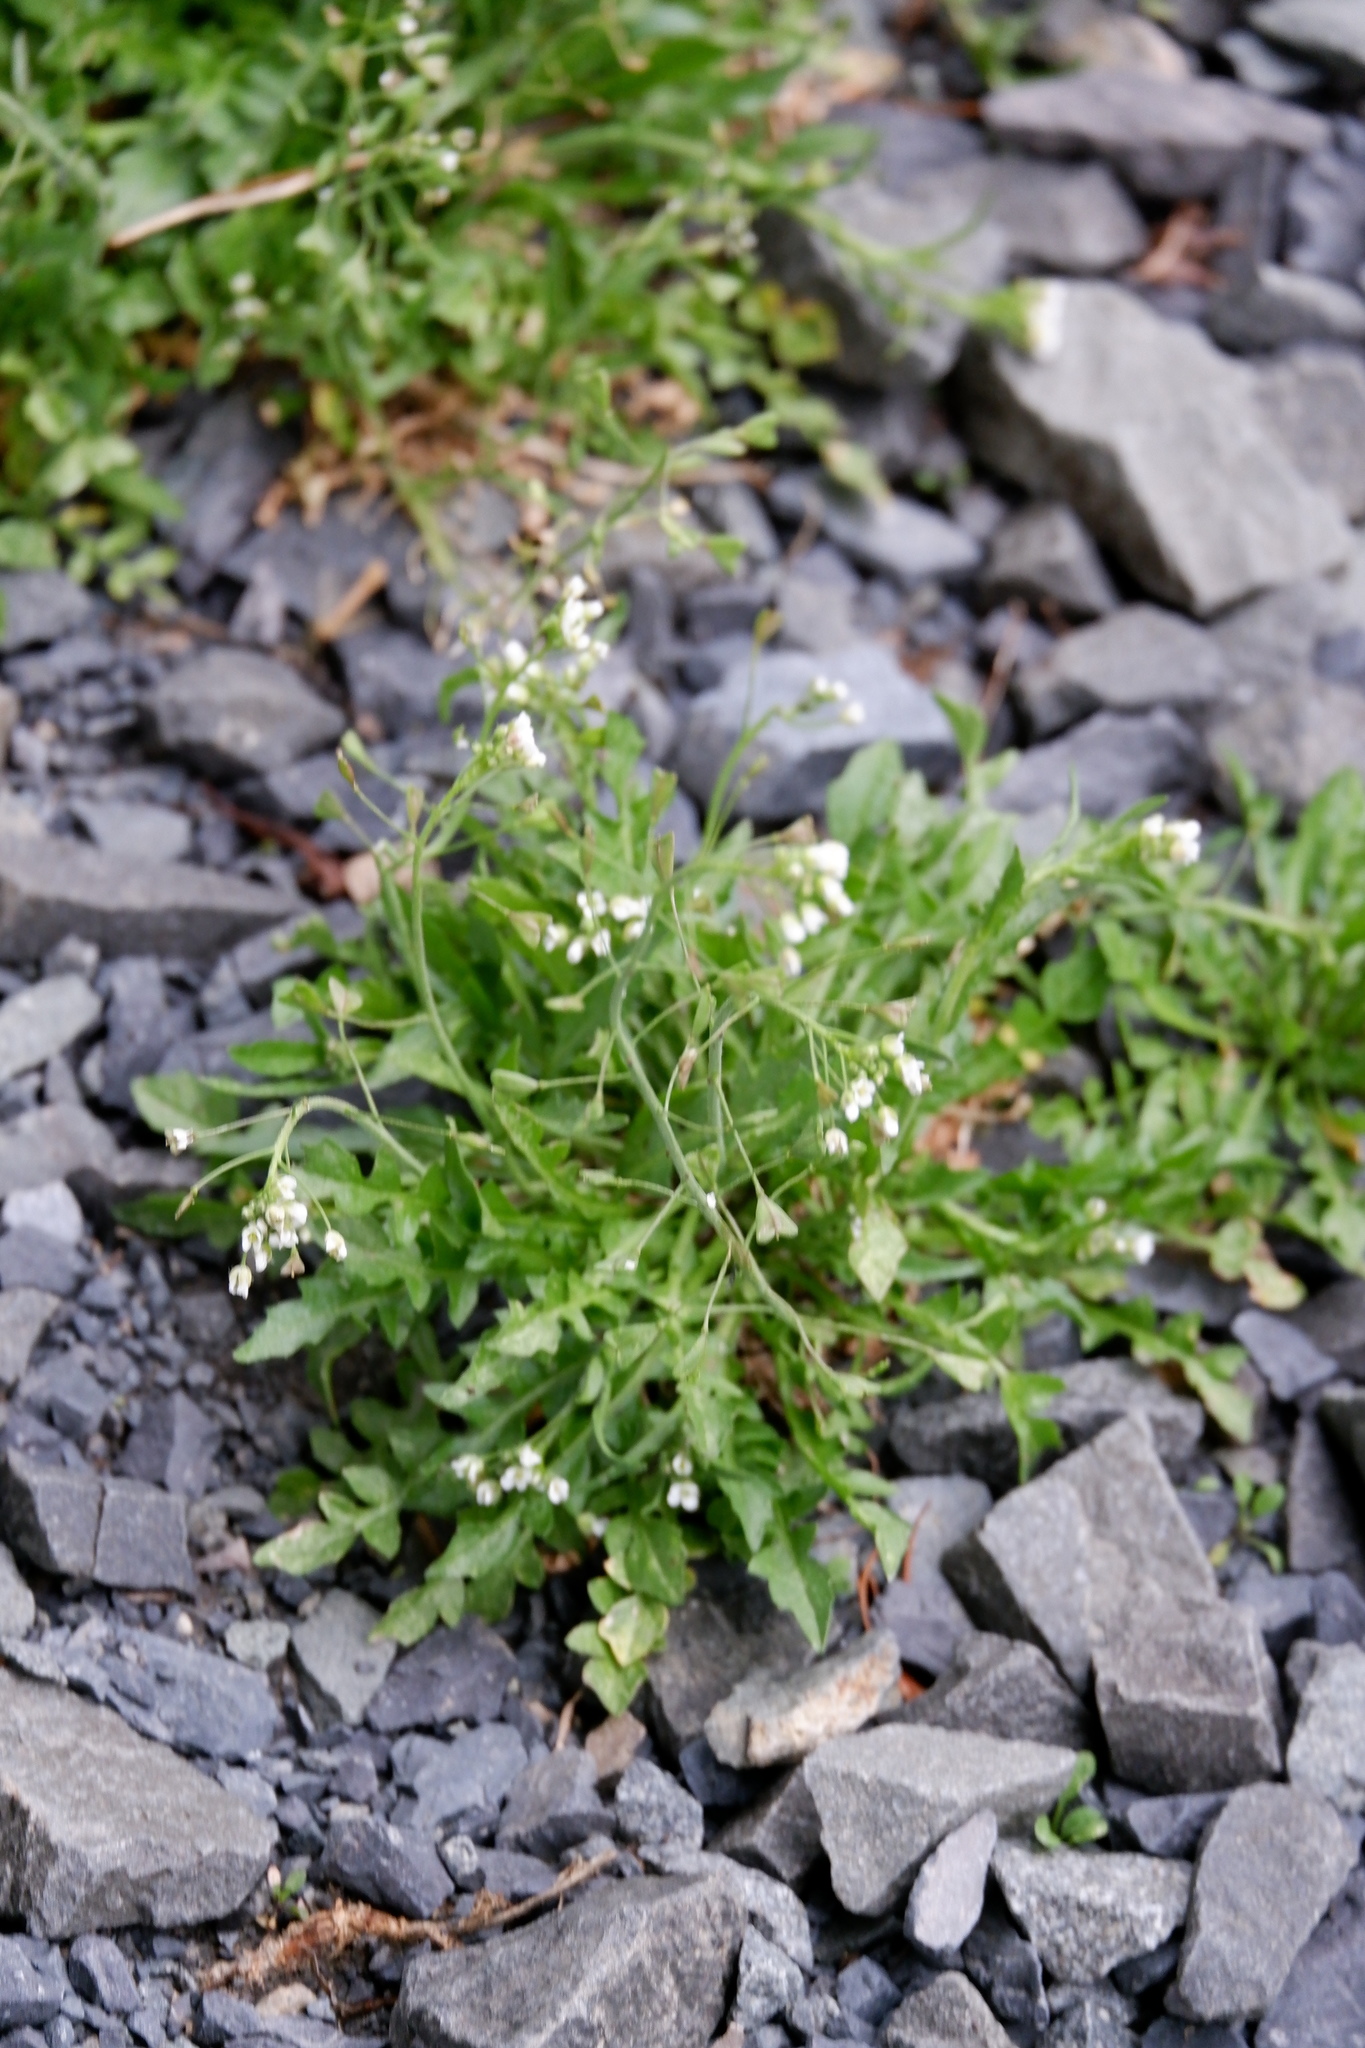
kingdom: Plantae
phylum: Tracheophyta
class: Magnoliopsida
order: Brassicales
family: Brassicaceae
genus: Capsella
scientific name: Capsella bursa-pastoris
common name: Shepherd's purse
